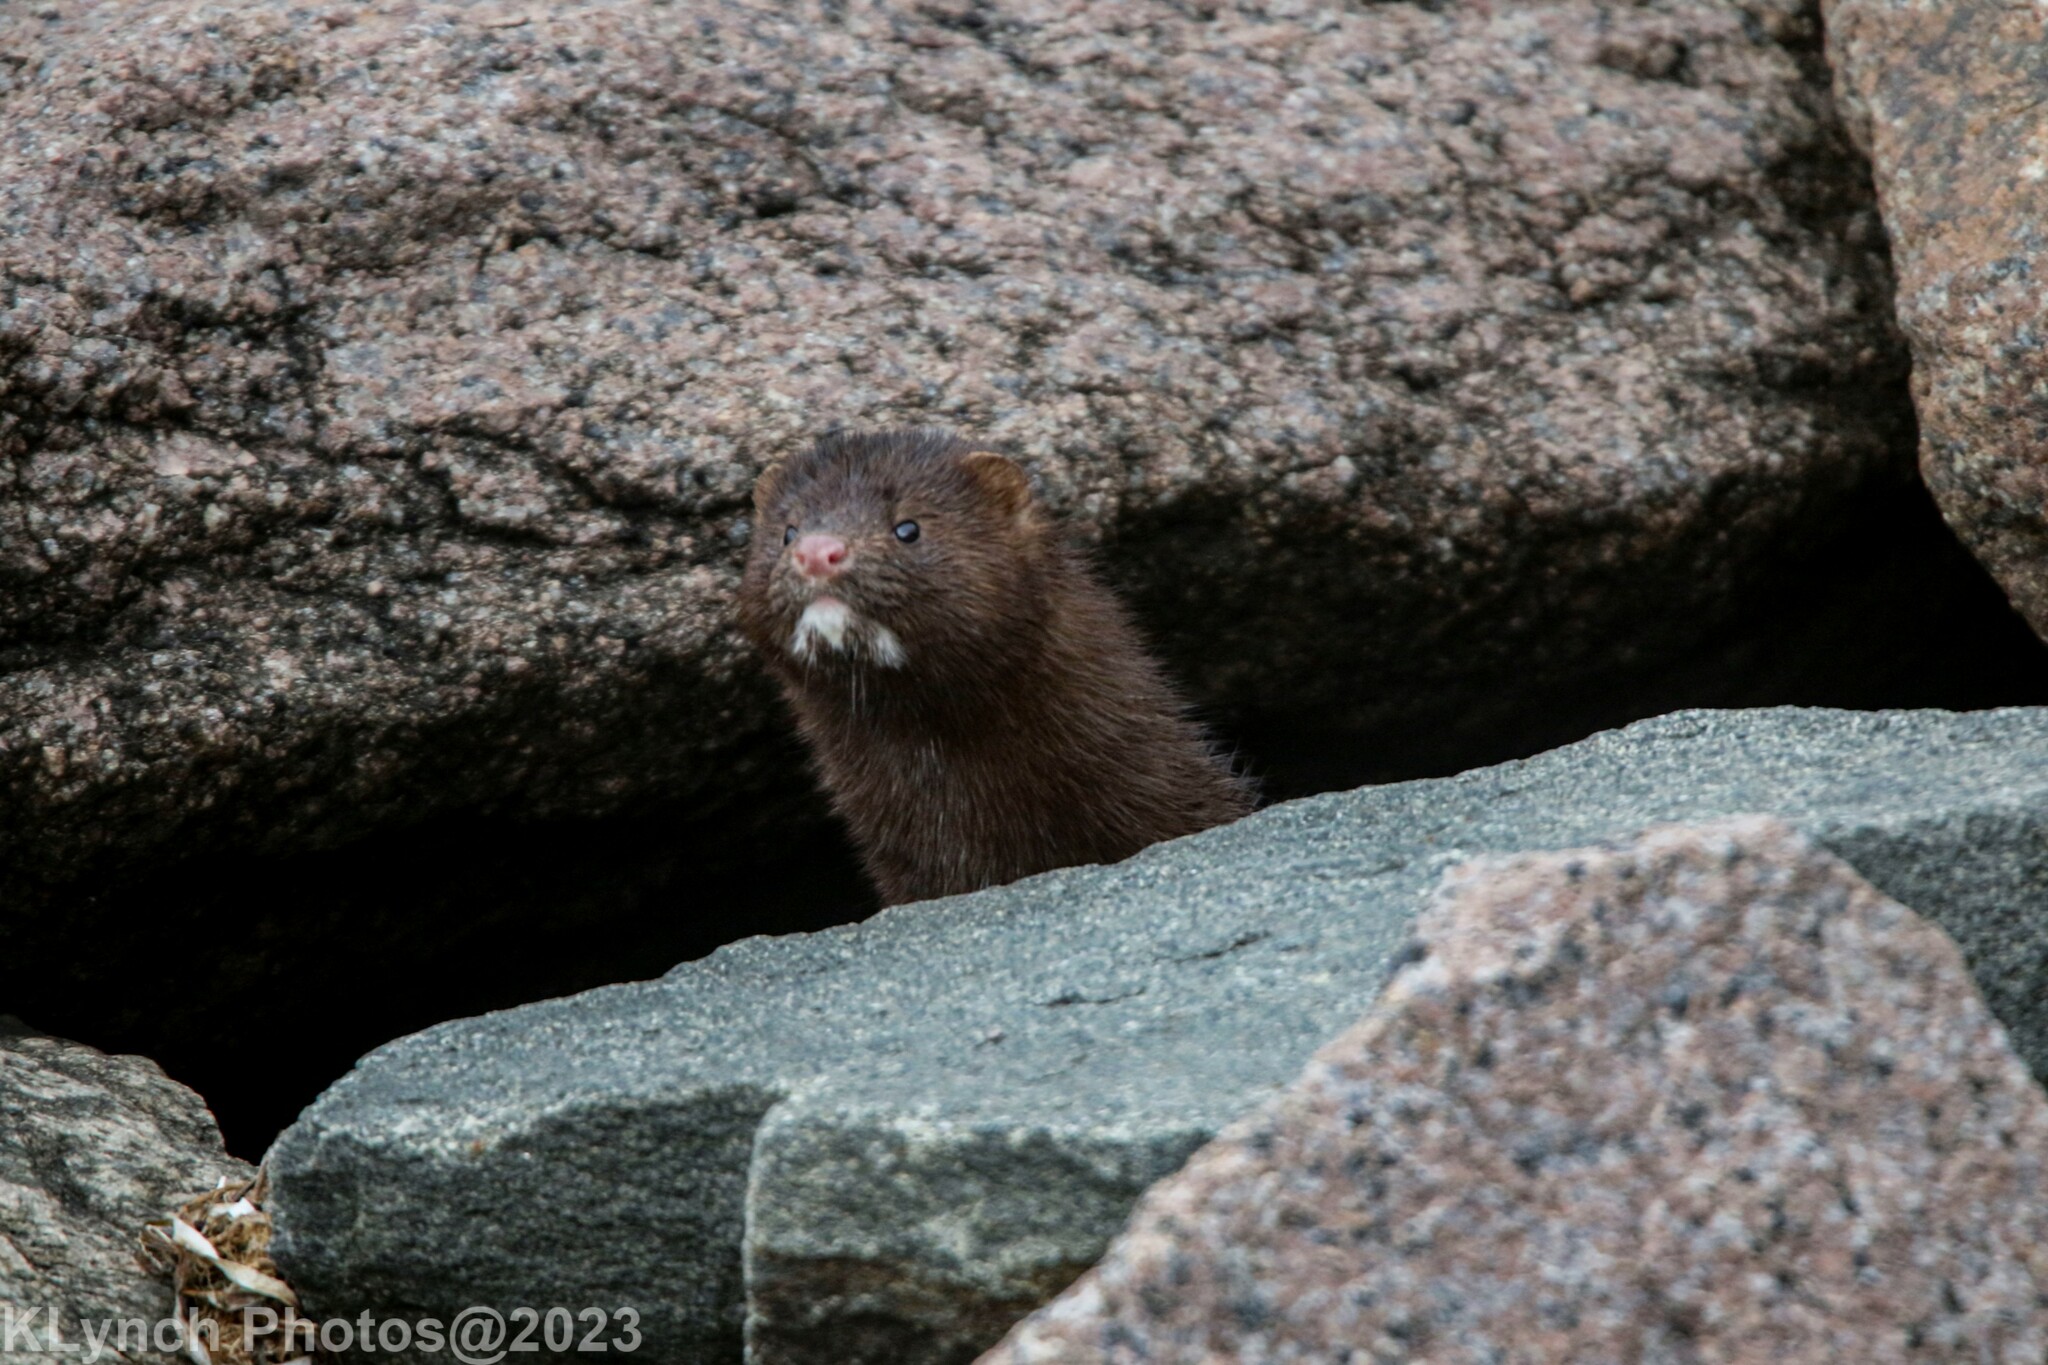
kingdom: Animalia
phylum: Chordata
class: Mammalia
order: Carnivora
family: Mustelidae
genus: Mustela
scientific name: Mustela
